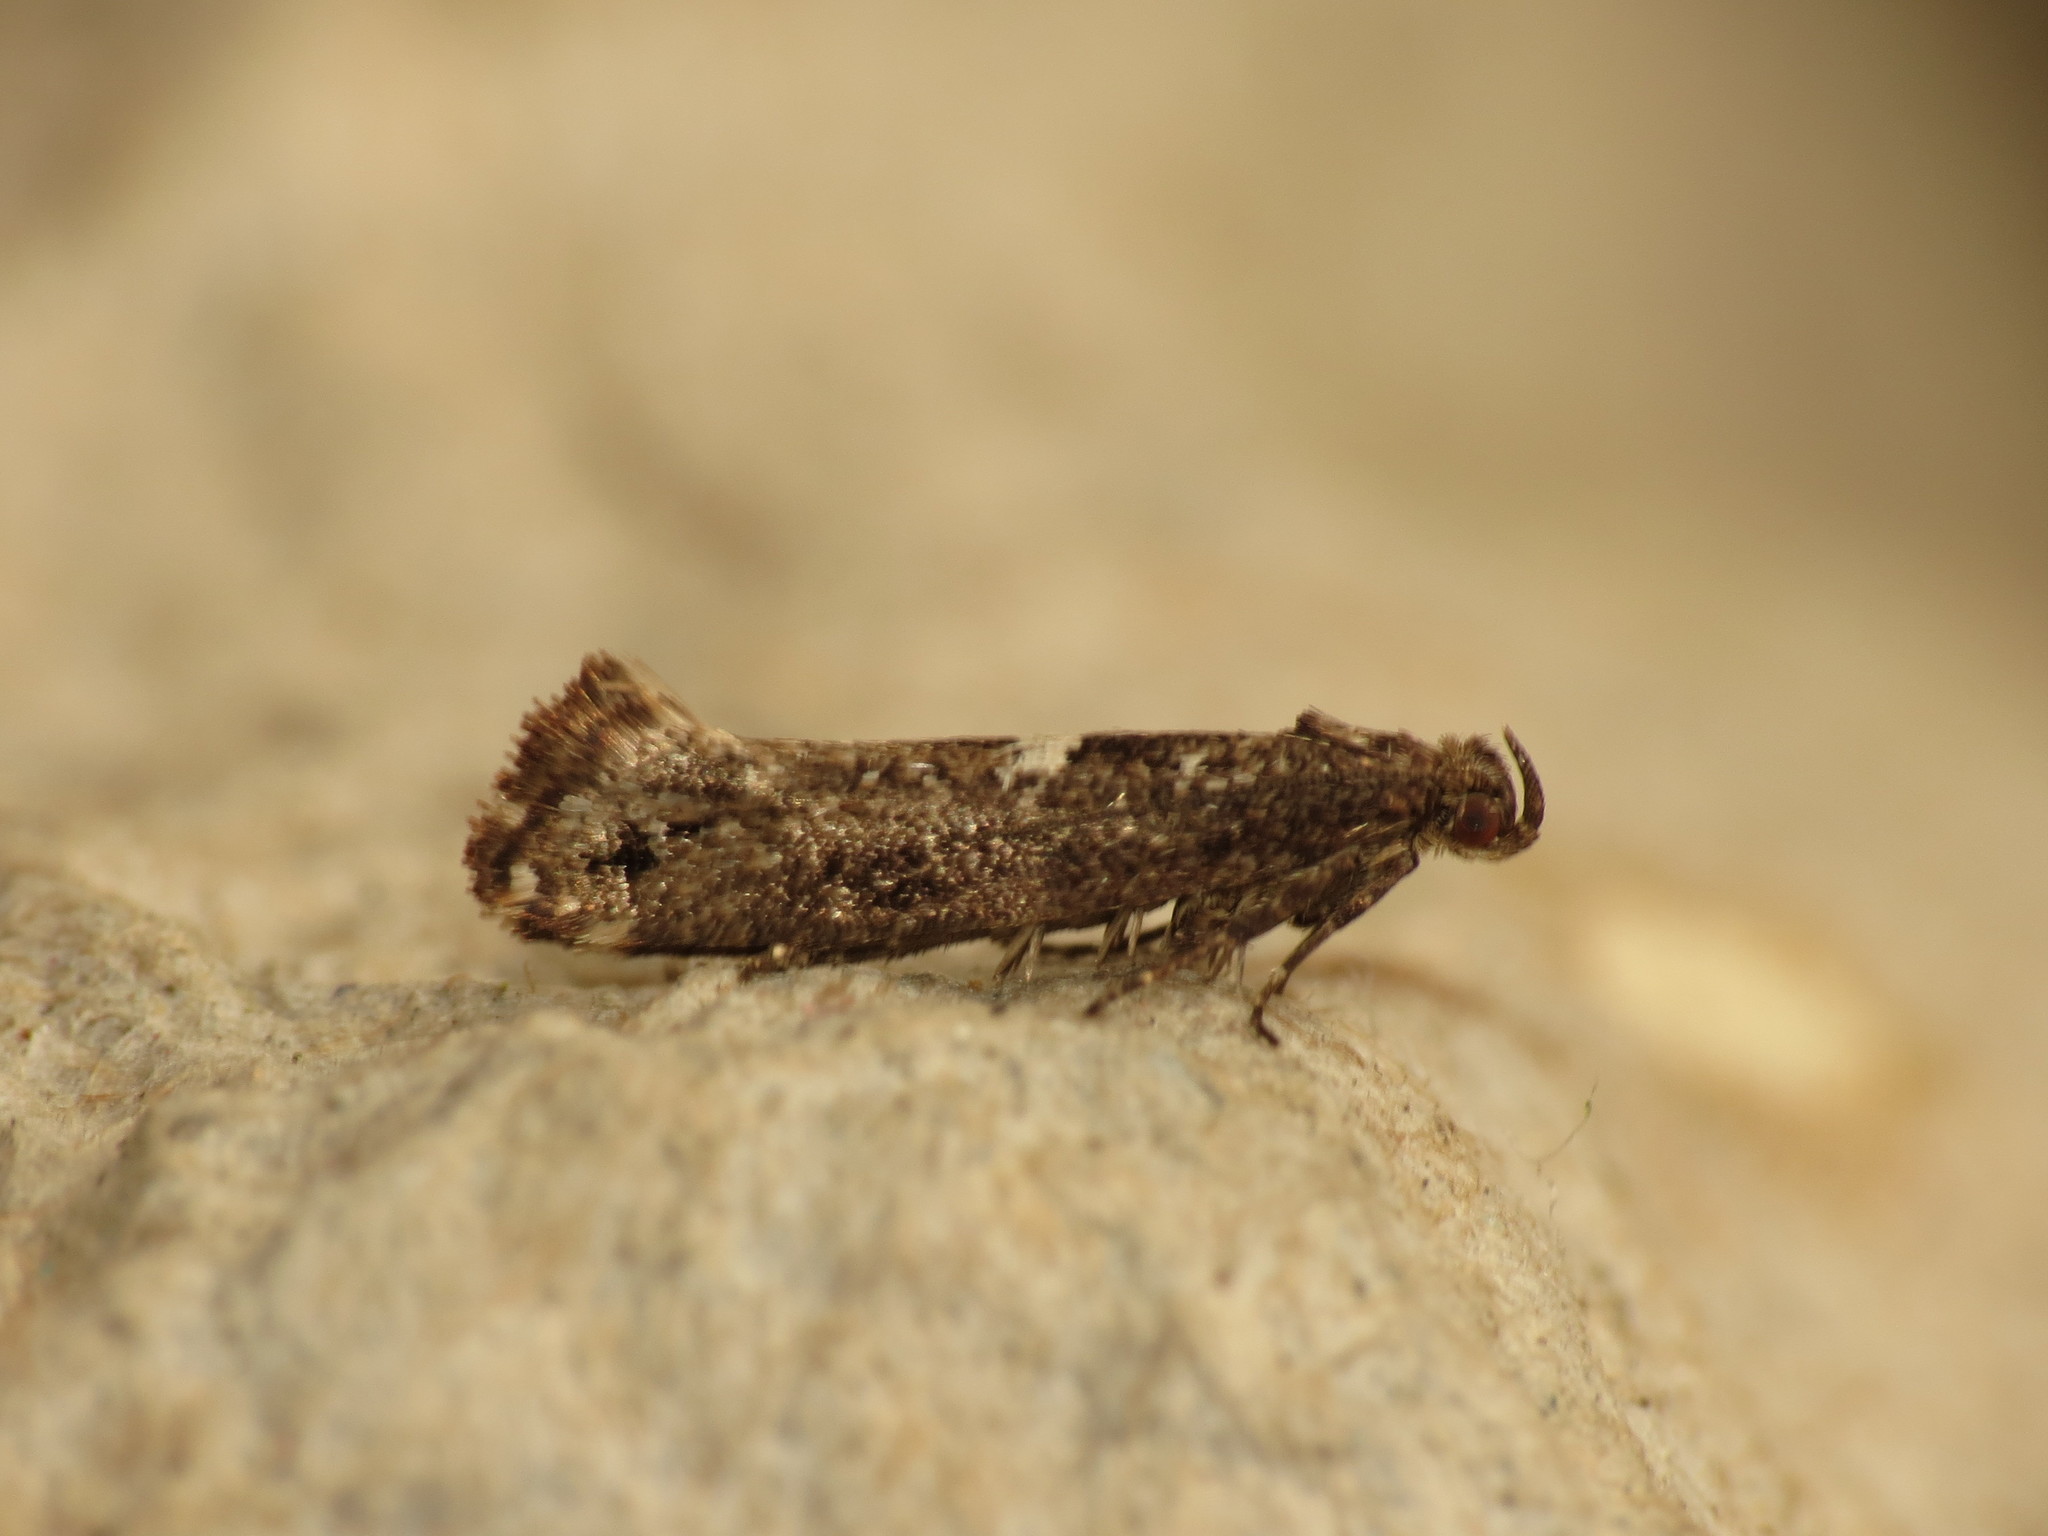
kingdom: Animalia
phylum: Arthropoda
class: Insecta
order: Lepidoptera
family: Glyphipterigidae
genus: Acrolepia
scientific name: Acrolepia assectella
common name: Onion leaf miner
